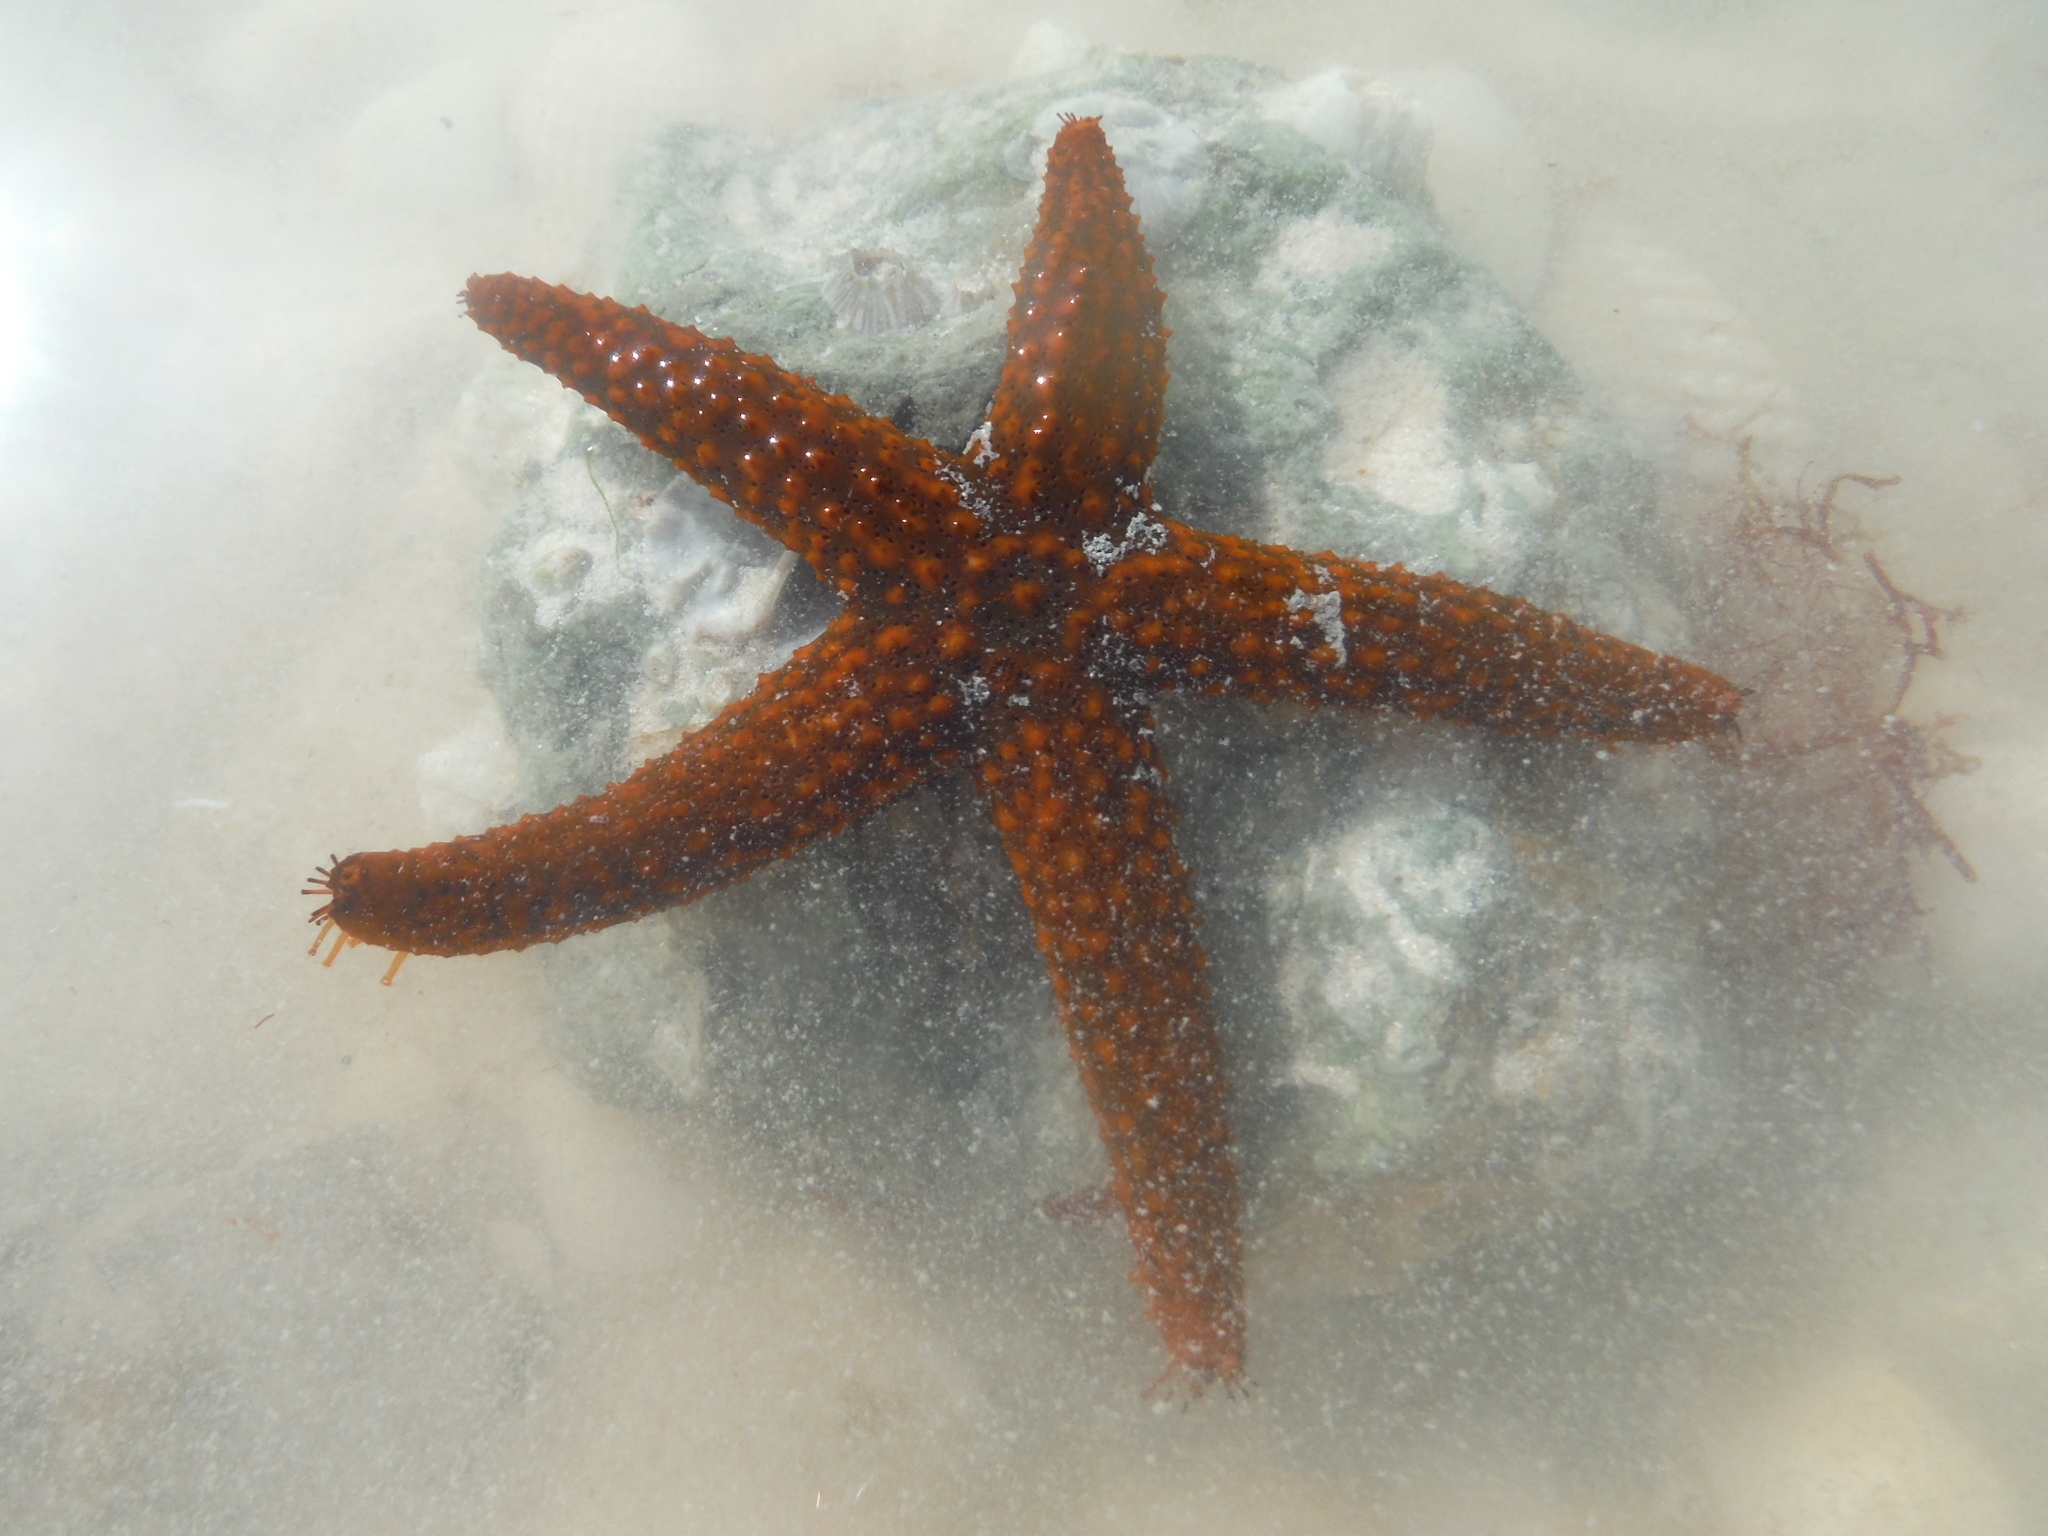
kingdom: Animalia
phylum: Echinodermata
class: Asteroidea
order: Spinulosida
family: Echinasteridae
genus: Echinaster
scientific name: Echinaster sentus
